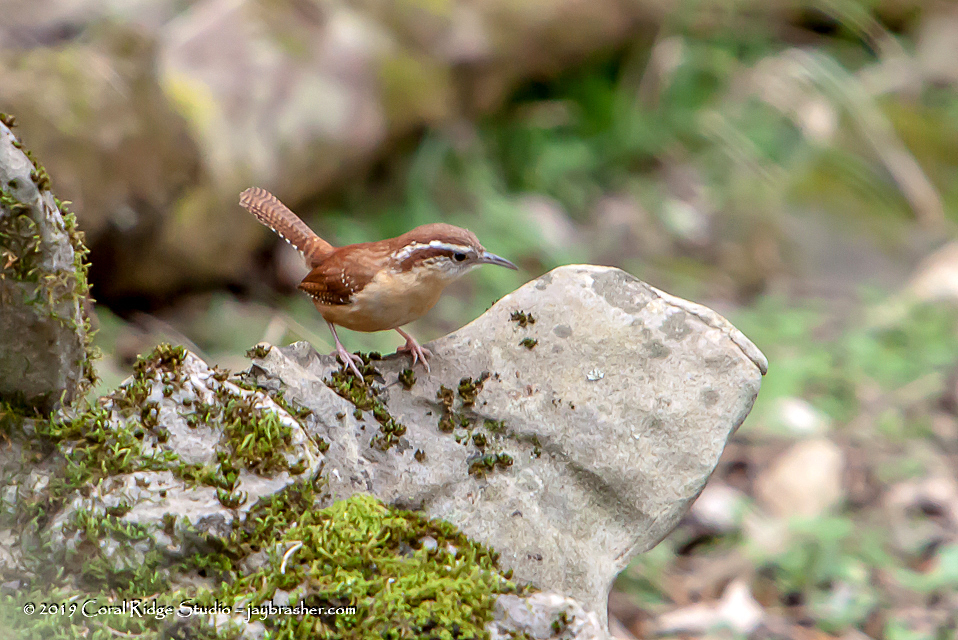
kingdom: Animalia
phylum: Chordata
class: Aves
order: Passeriformes
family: Troglodytidae
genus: Thryothorus
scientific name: Thryothorus ludovicianus
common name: Carolina wren
